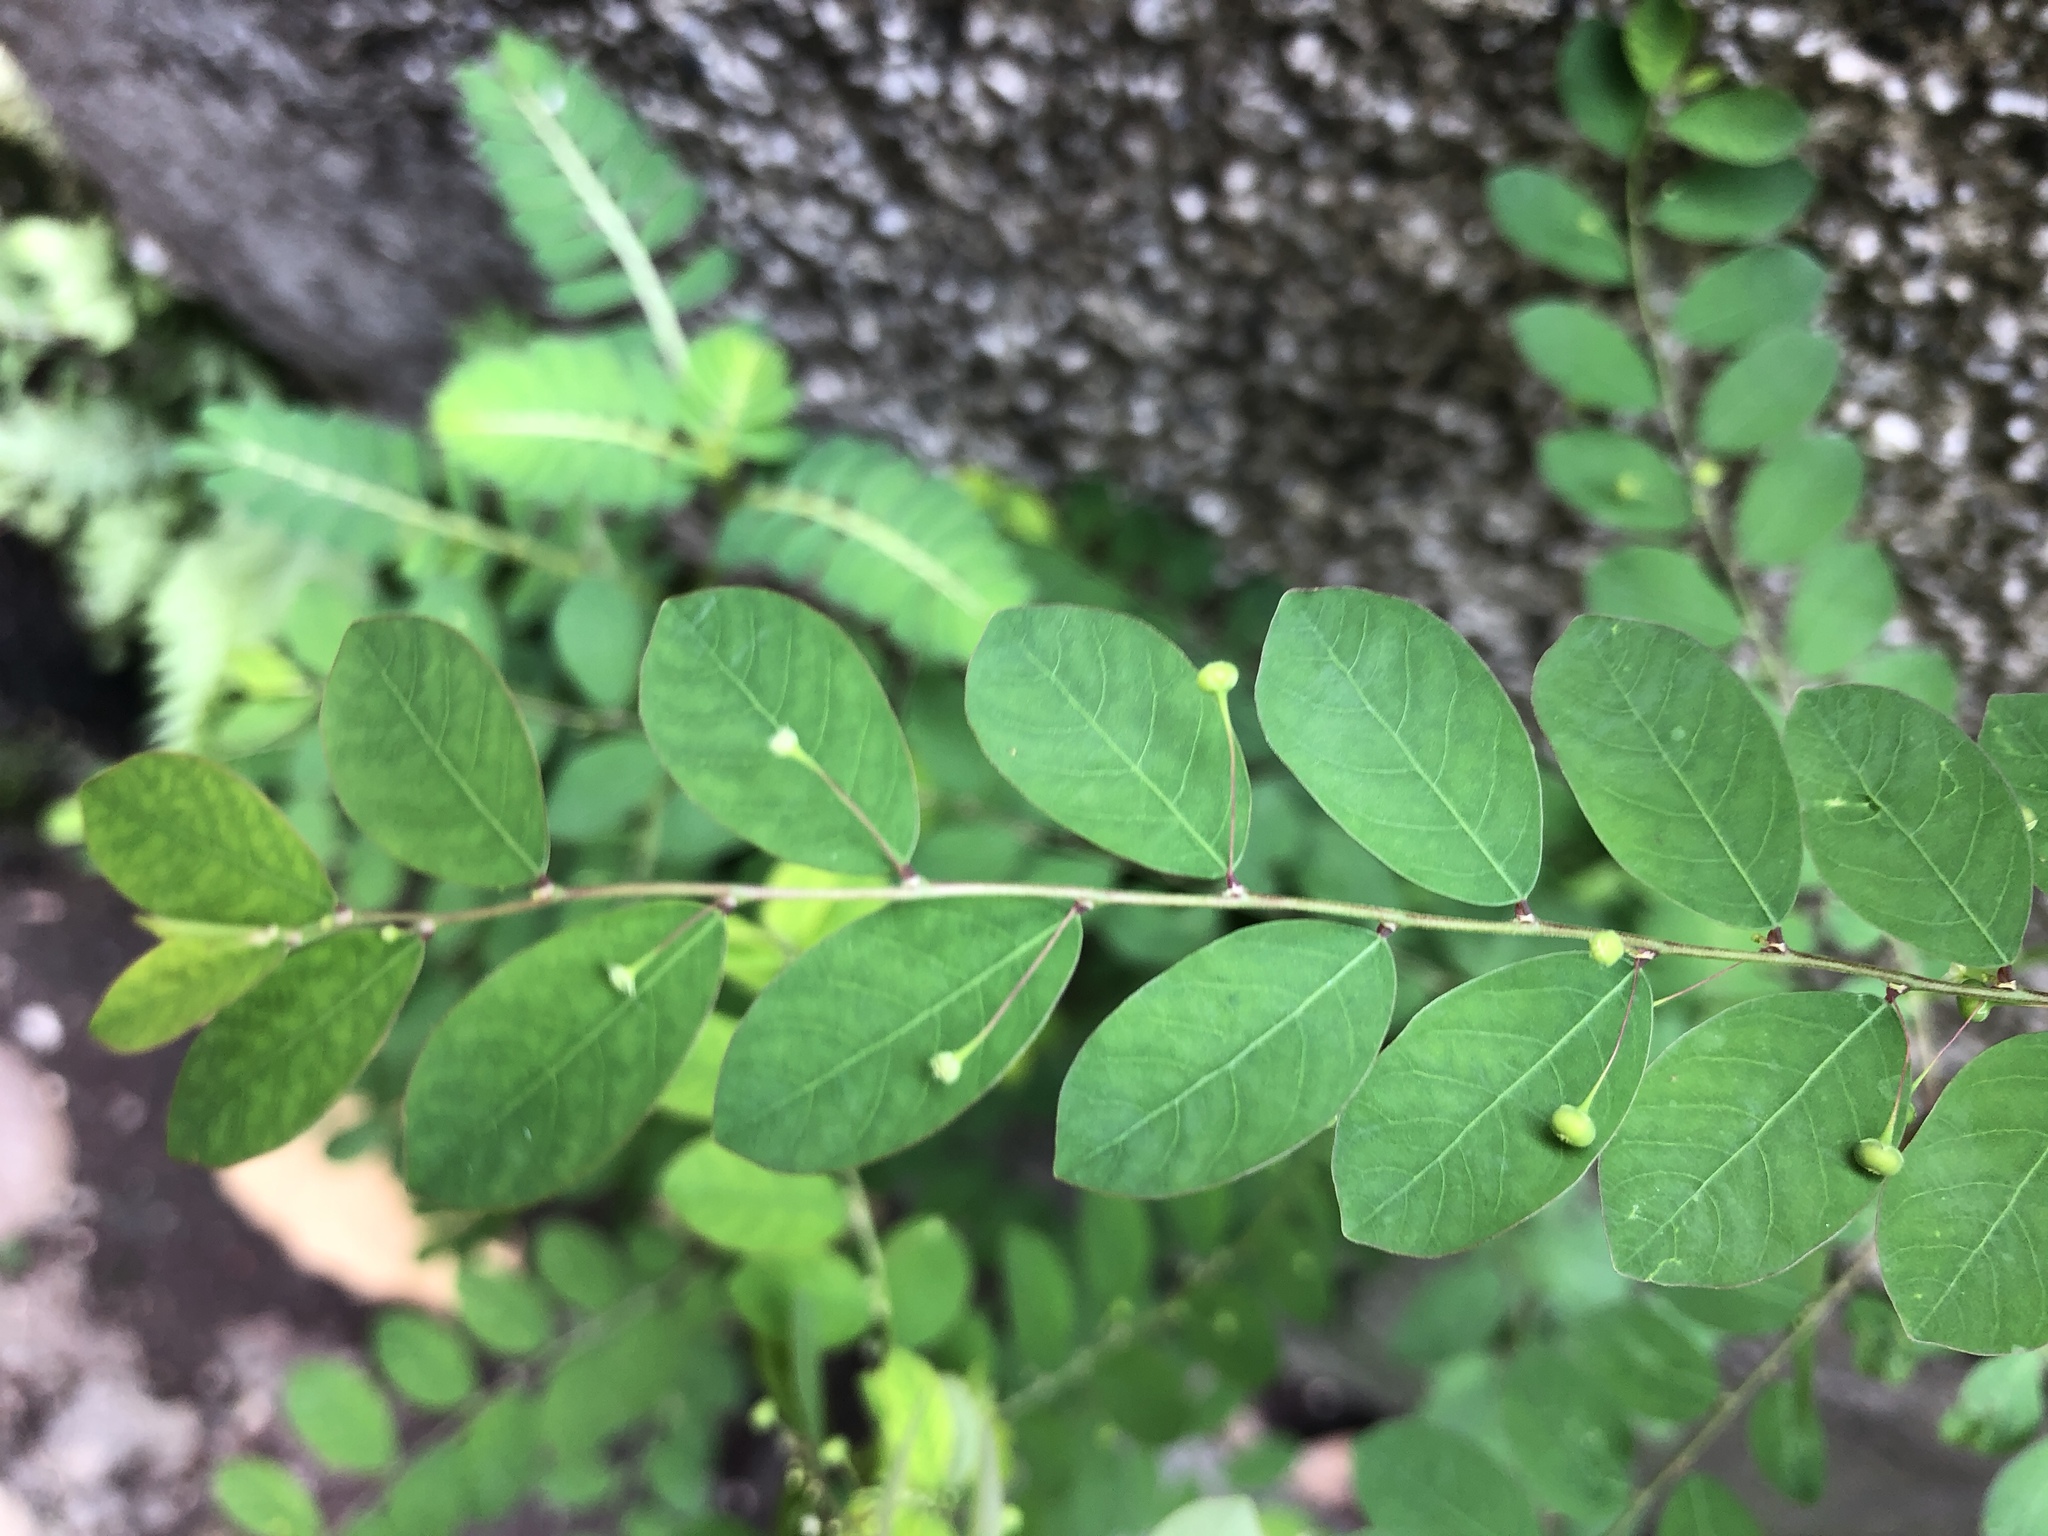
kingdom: Plantae
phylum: Tracheophyta
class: Magnoliopsida
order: Malpighiales
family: Phyllanthaceae
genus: Phyllanthus
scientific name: Phyllanthus tenellus
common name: Mascarene island leaf-flower
